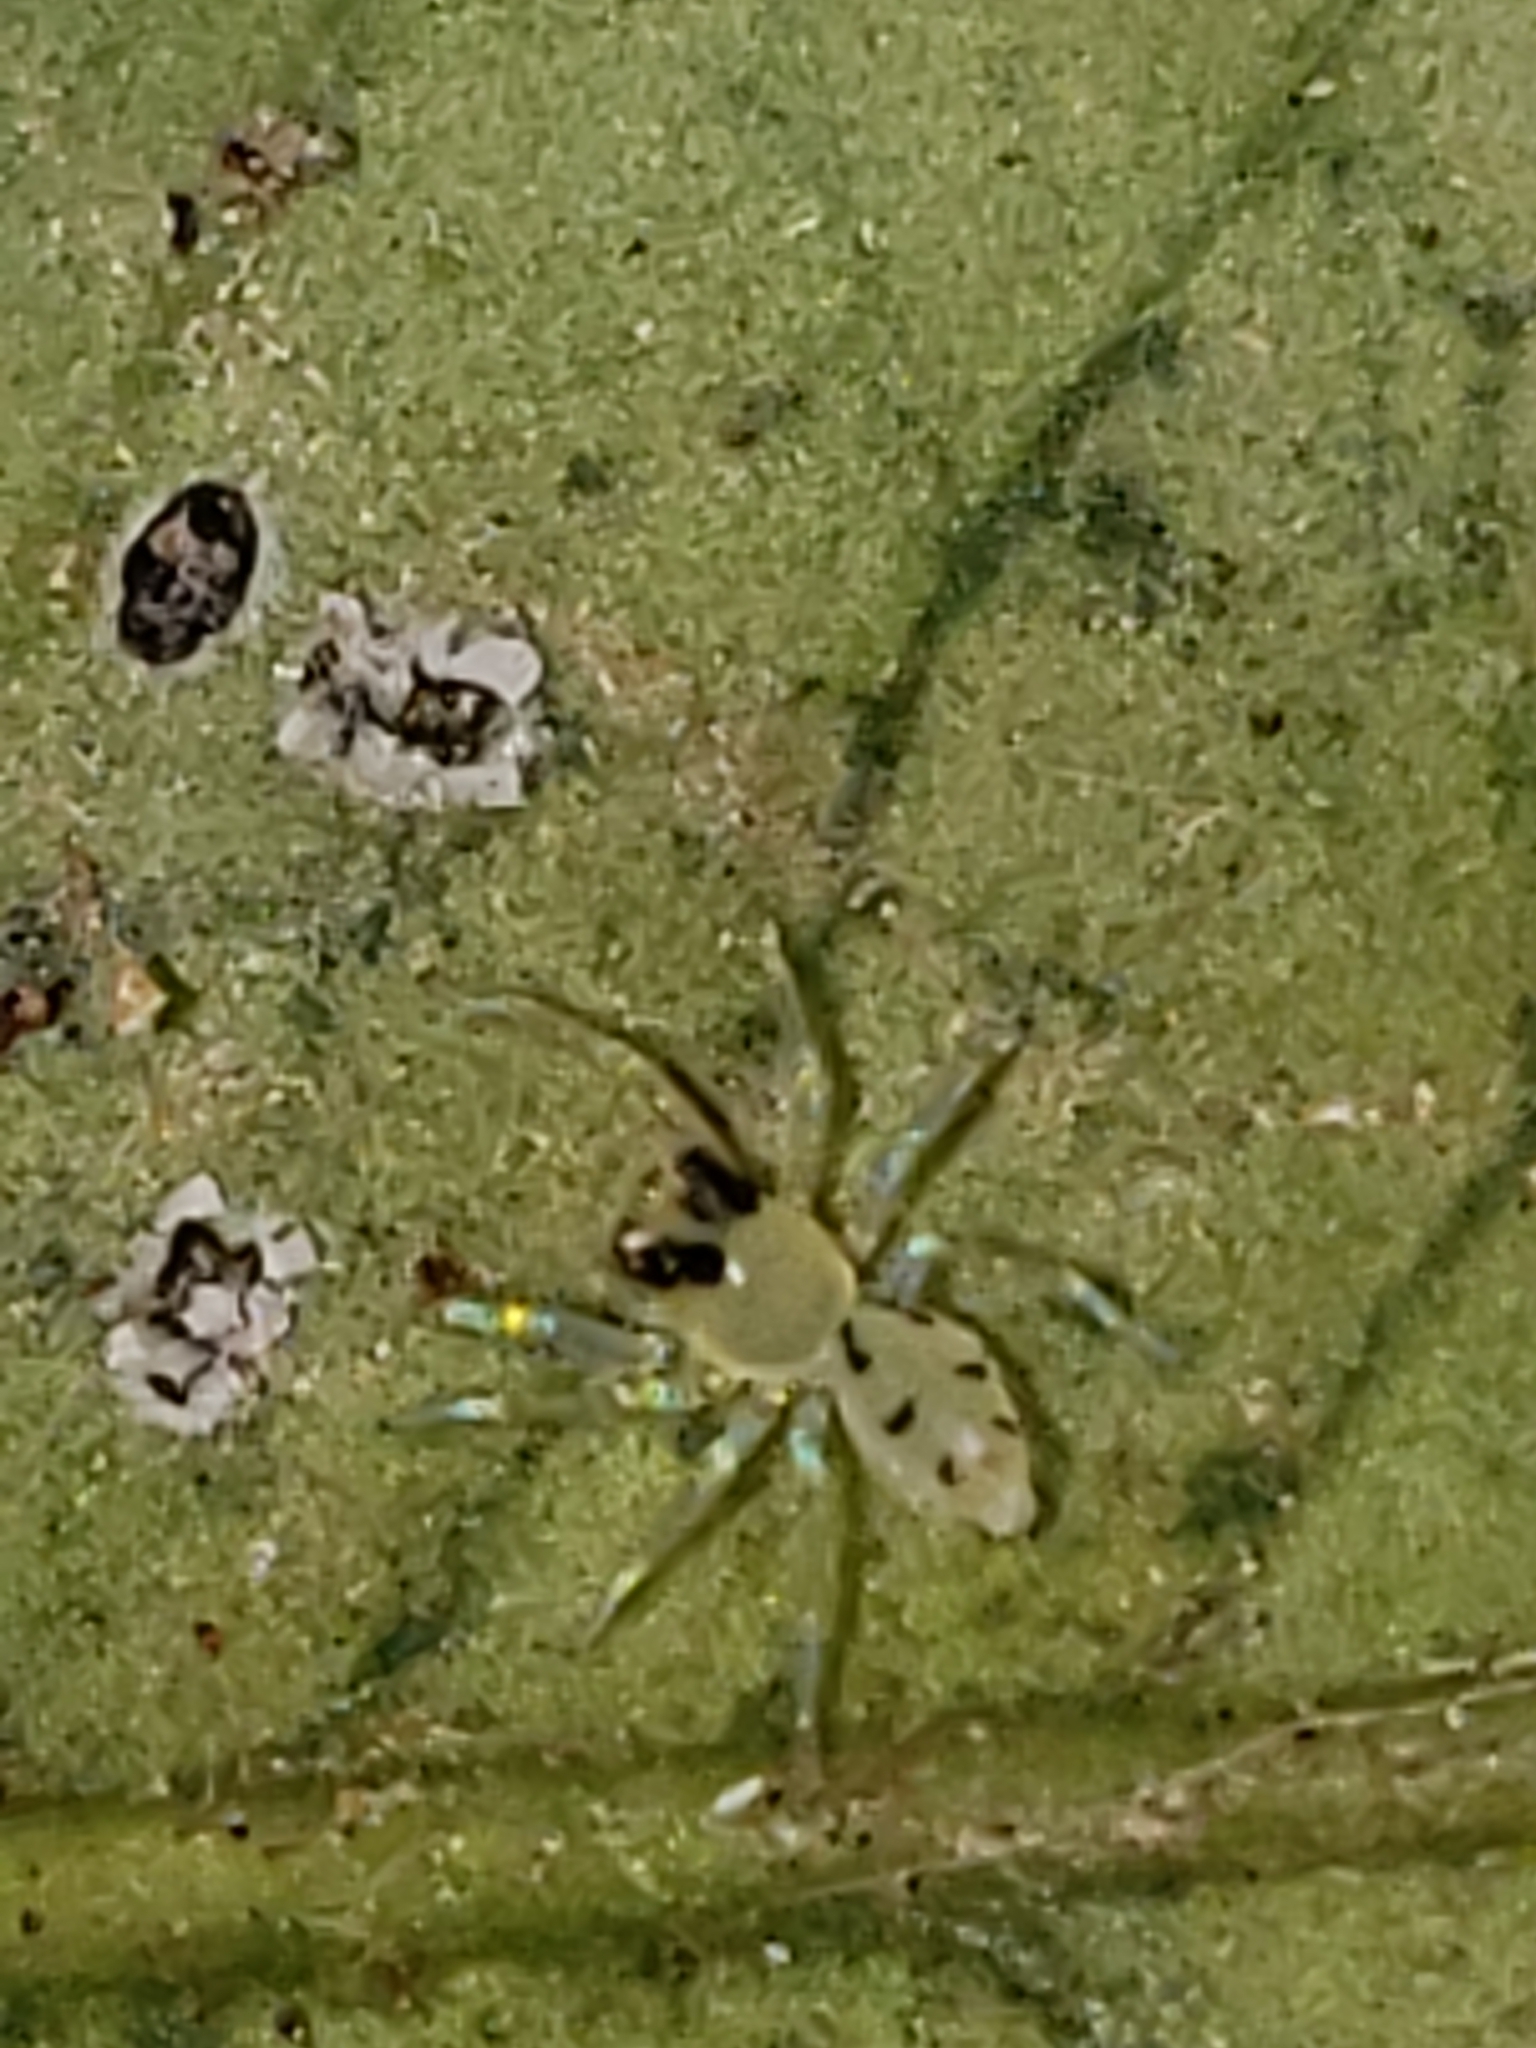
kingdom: Animalia
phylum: Arthropoda
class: Arachnida
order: Araneae
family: Salticidae
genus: Lyssomanes
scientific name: Lyssomanes viridis
